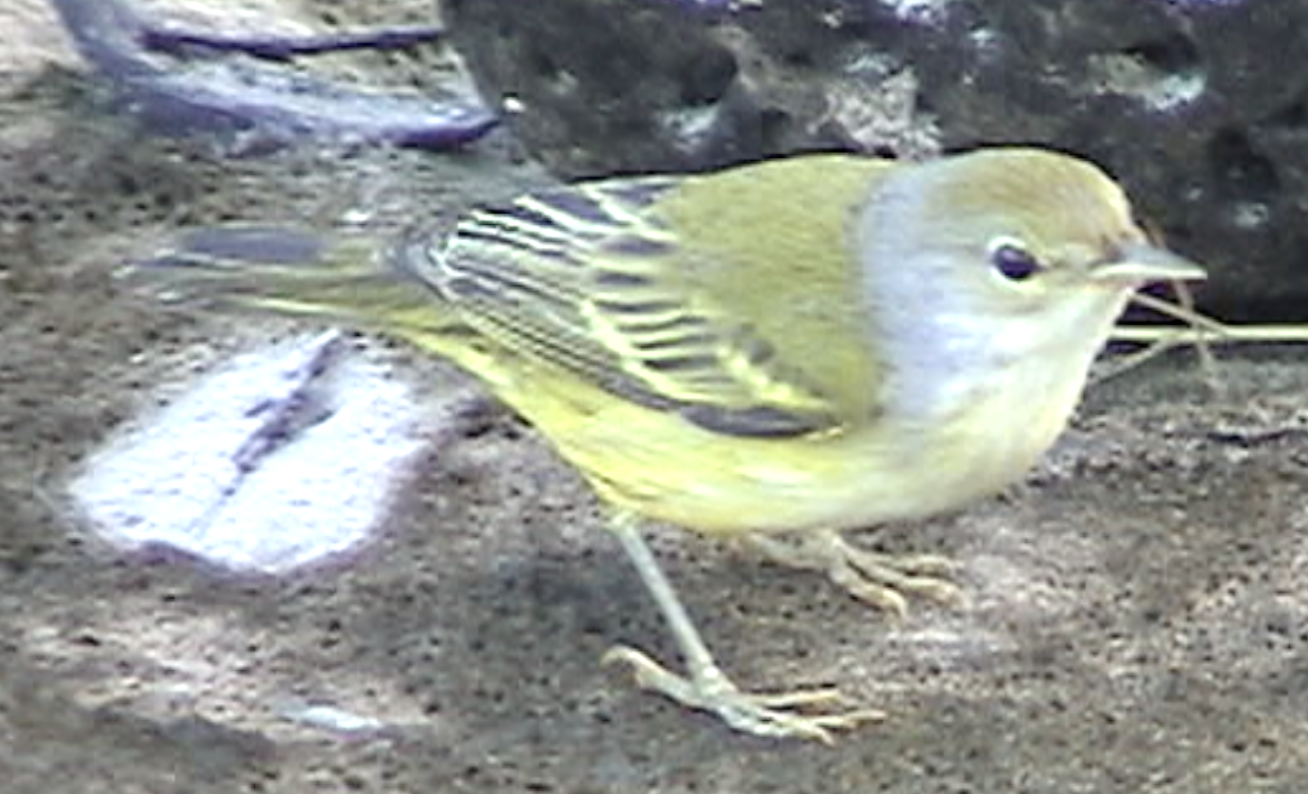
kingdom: Animalia
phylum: Chordata
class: Aves
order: Passeriformes
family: Parulidae
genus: Setophaga
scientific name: Setophaga petechia
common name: Yellow warbler
